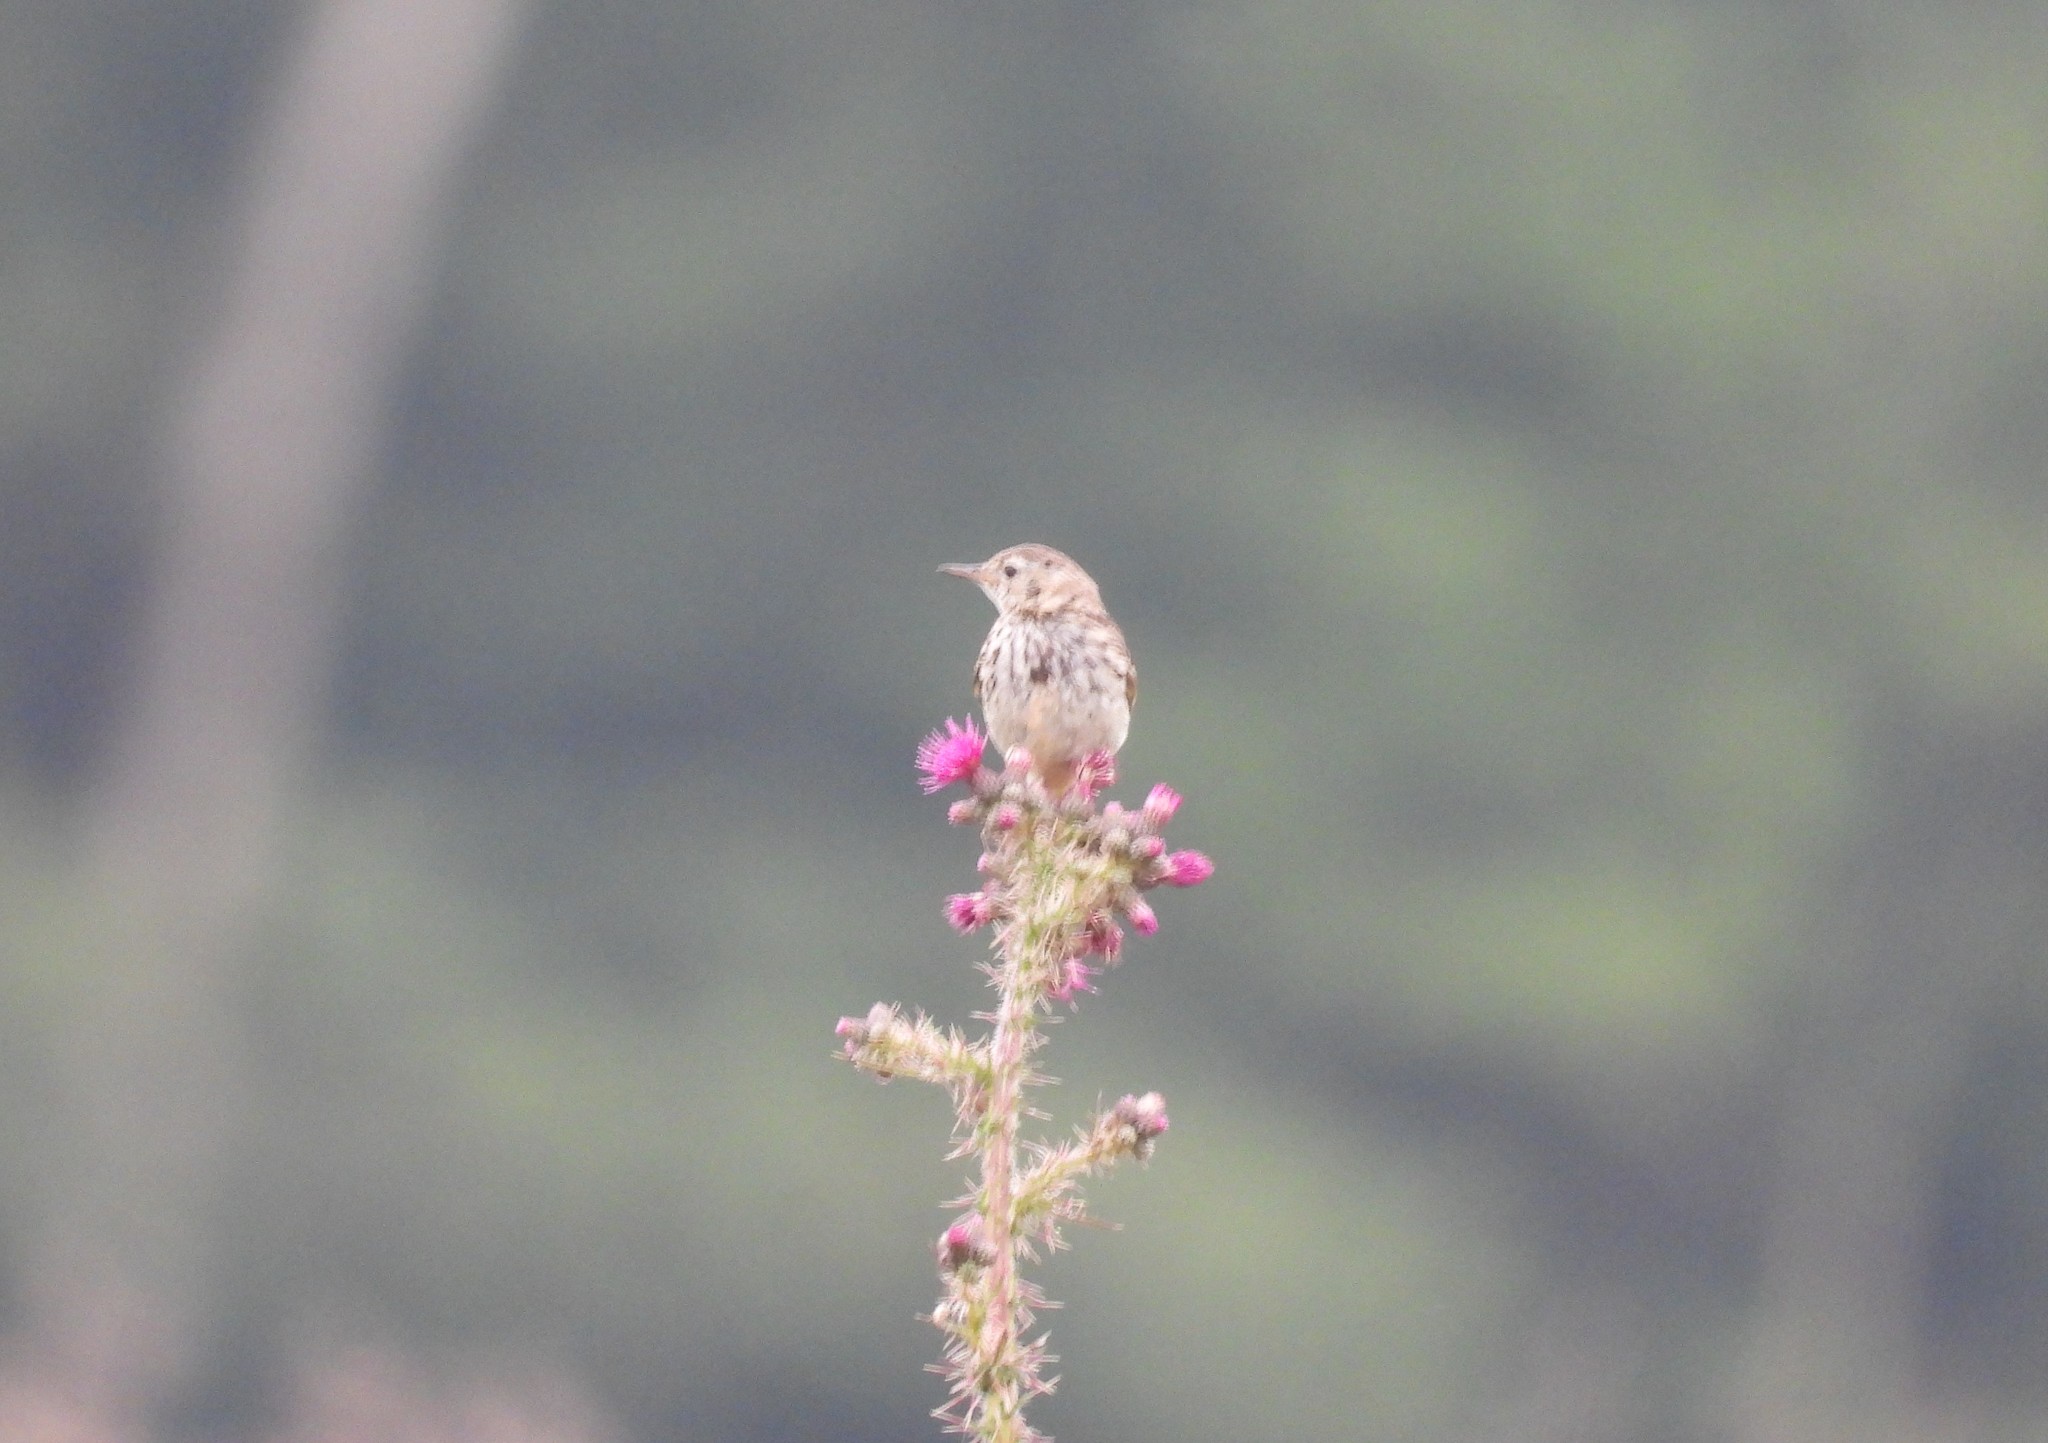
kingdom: Animalia
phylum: Chordata
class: Aves
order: Passeriformes
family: Motacillidae
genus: Anthus
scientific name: Anthus pratensis
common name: Meadow pipit
